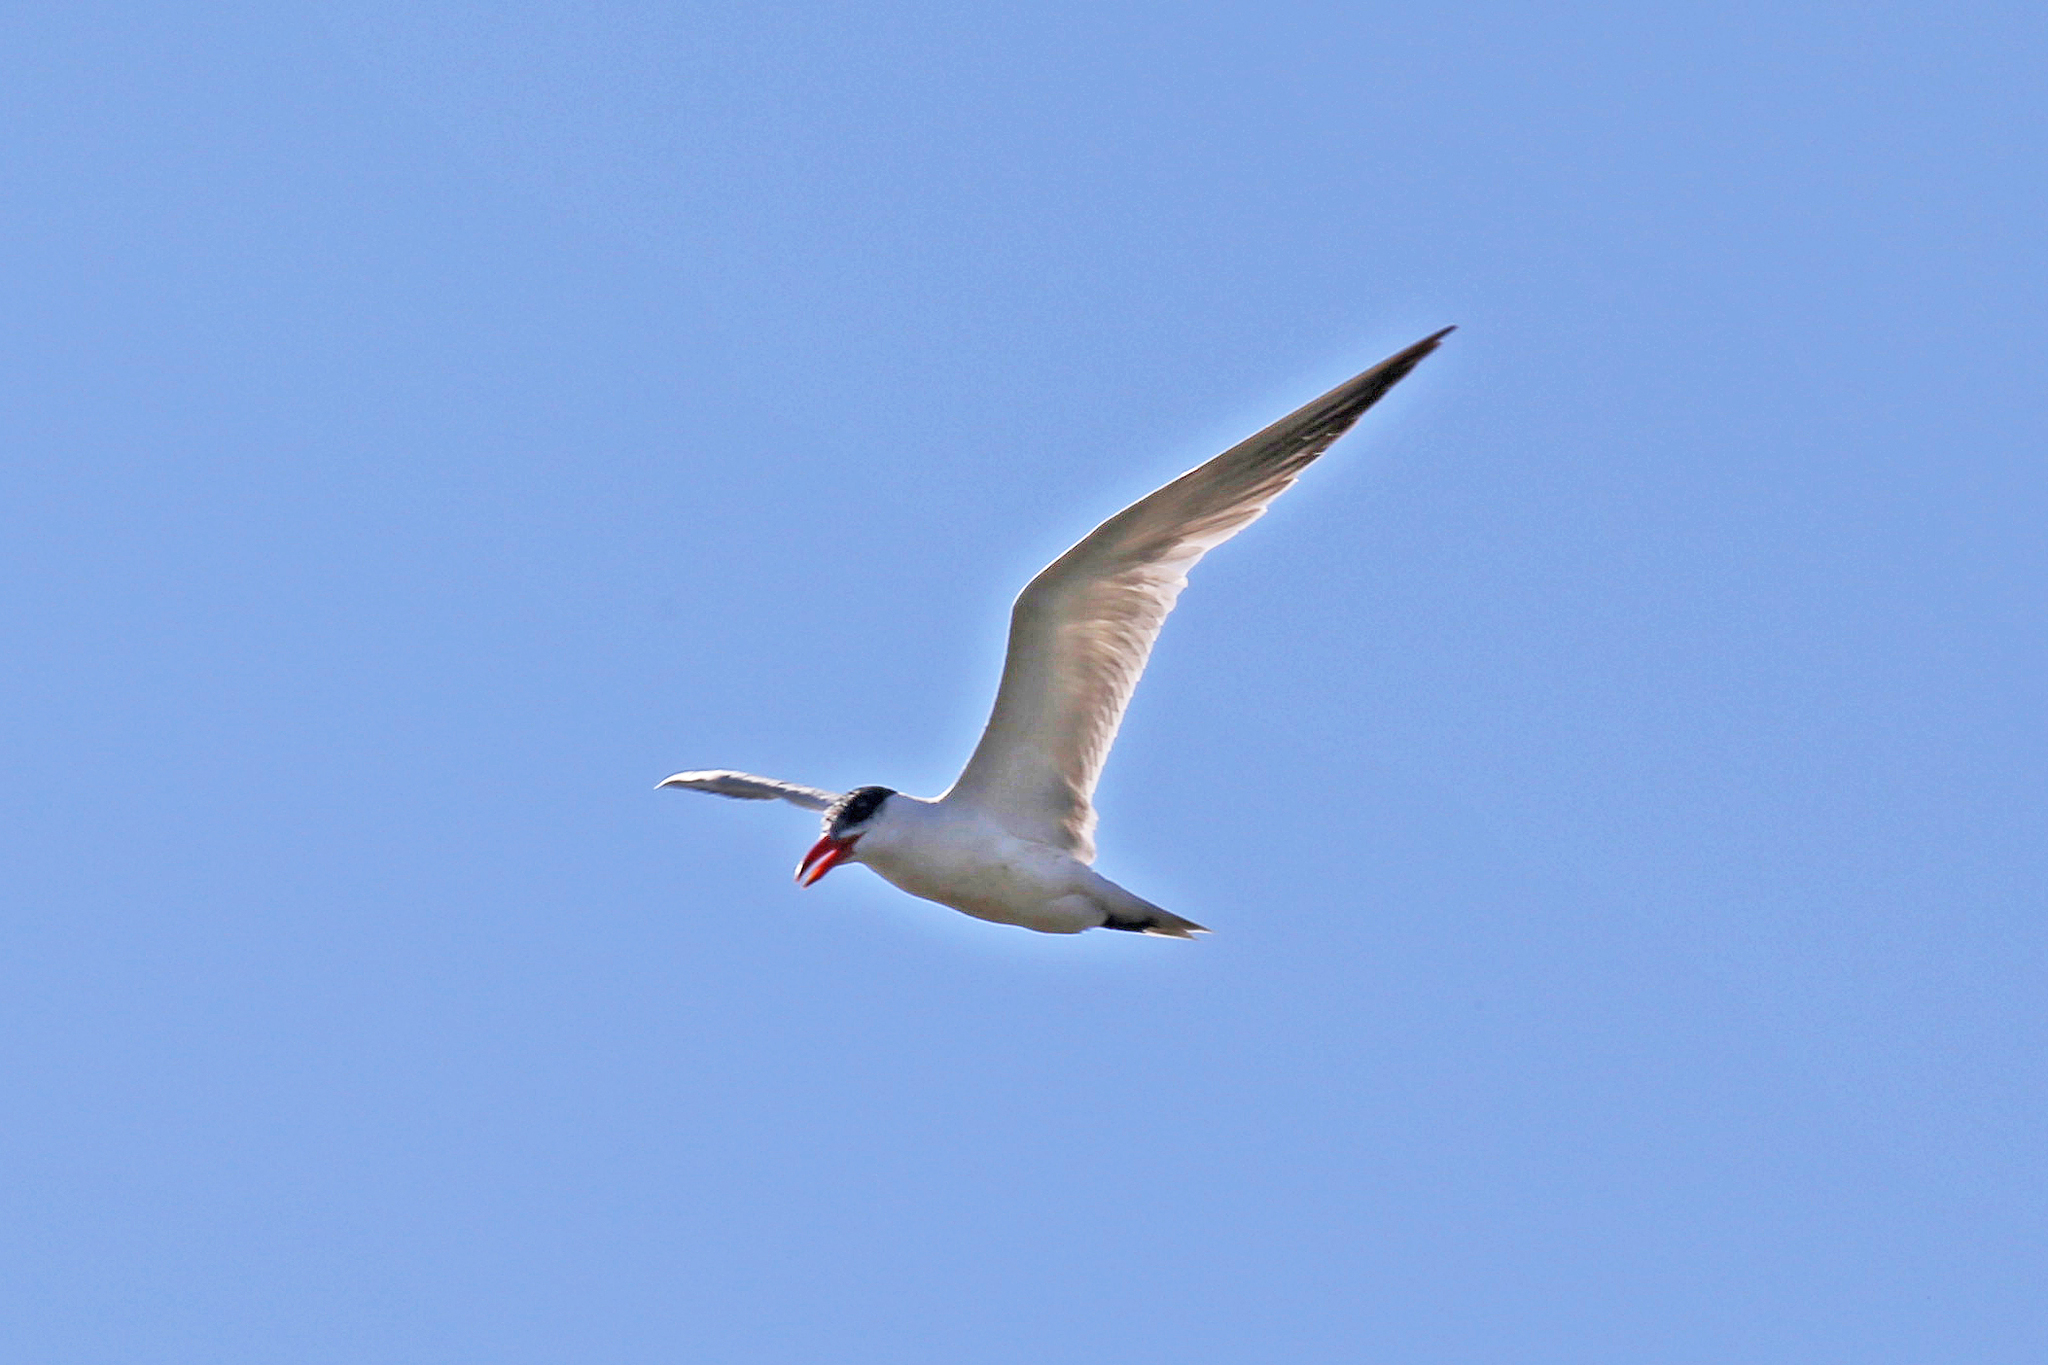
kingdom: Animalia
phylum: Chordata
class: Aves
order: Charadriiformes
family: Laridae
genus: Hydroprogne
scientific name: Hydroprogne caspia
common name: Caspian tern
